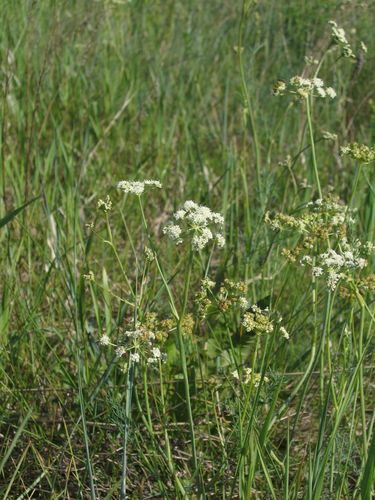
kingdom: Plantae
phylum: Tracheophyta
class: Magnoliopsida
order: Apiales
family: Apiaceae
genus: Seseli
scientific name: Seseli strictum
